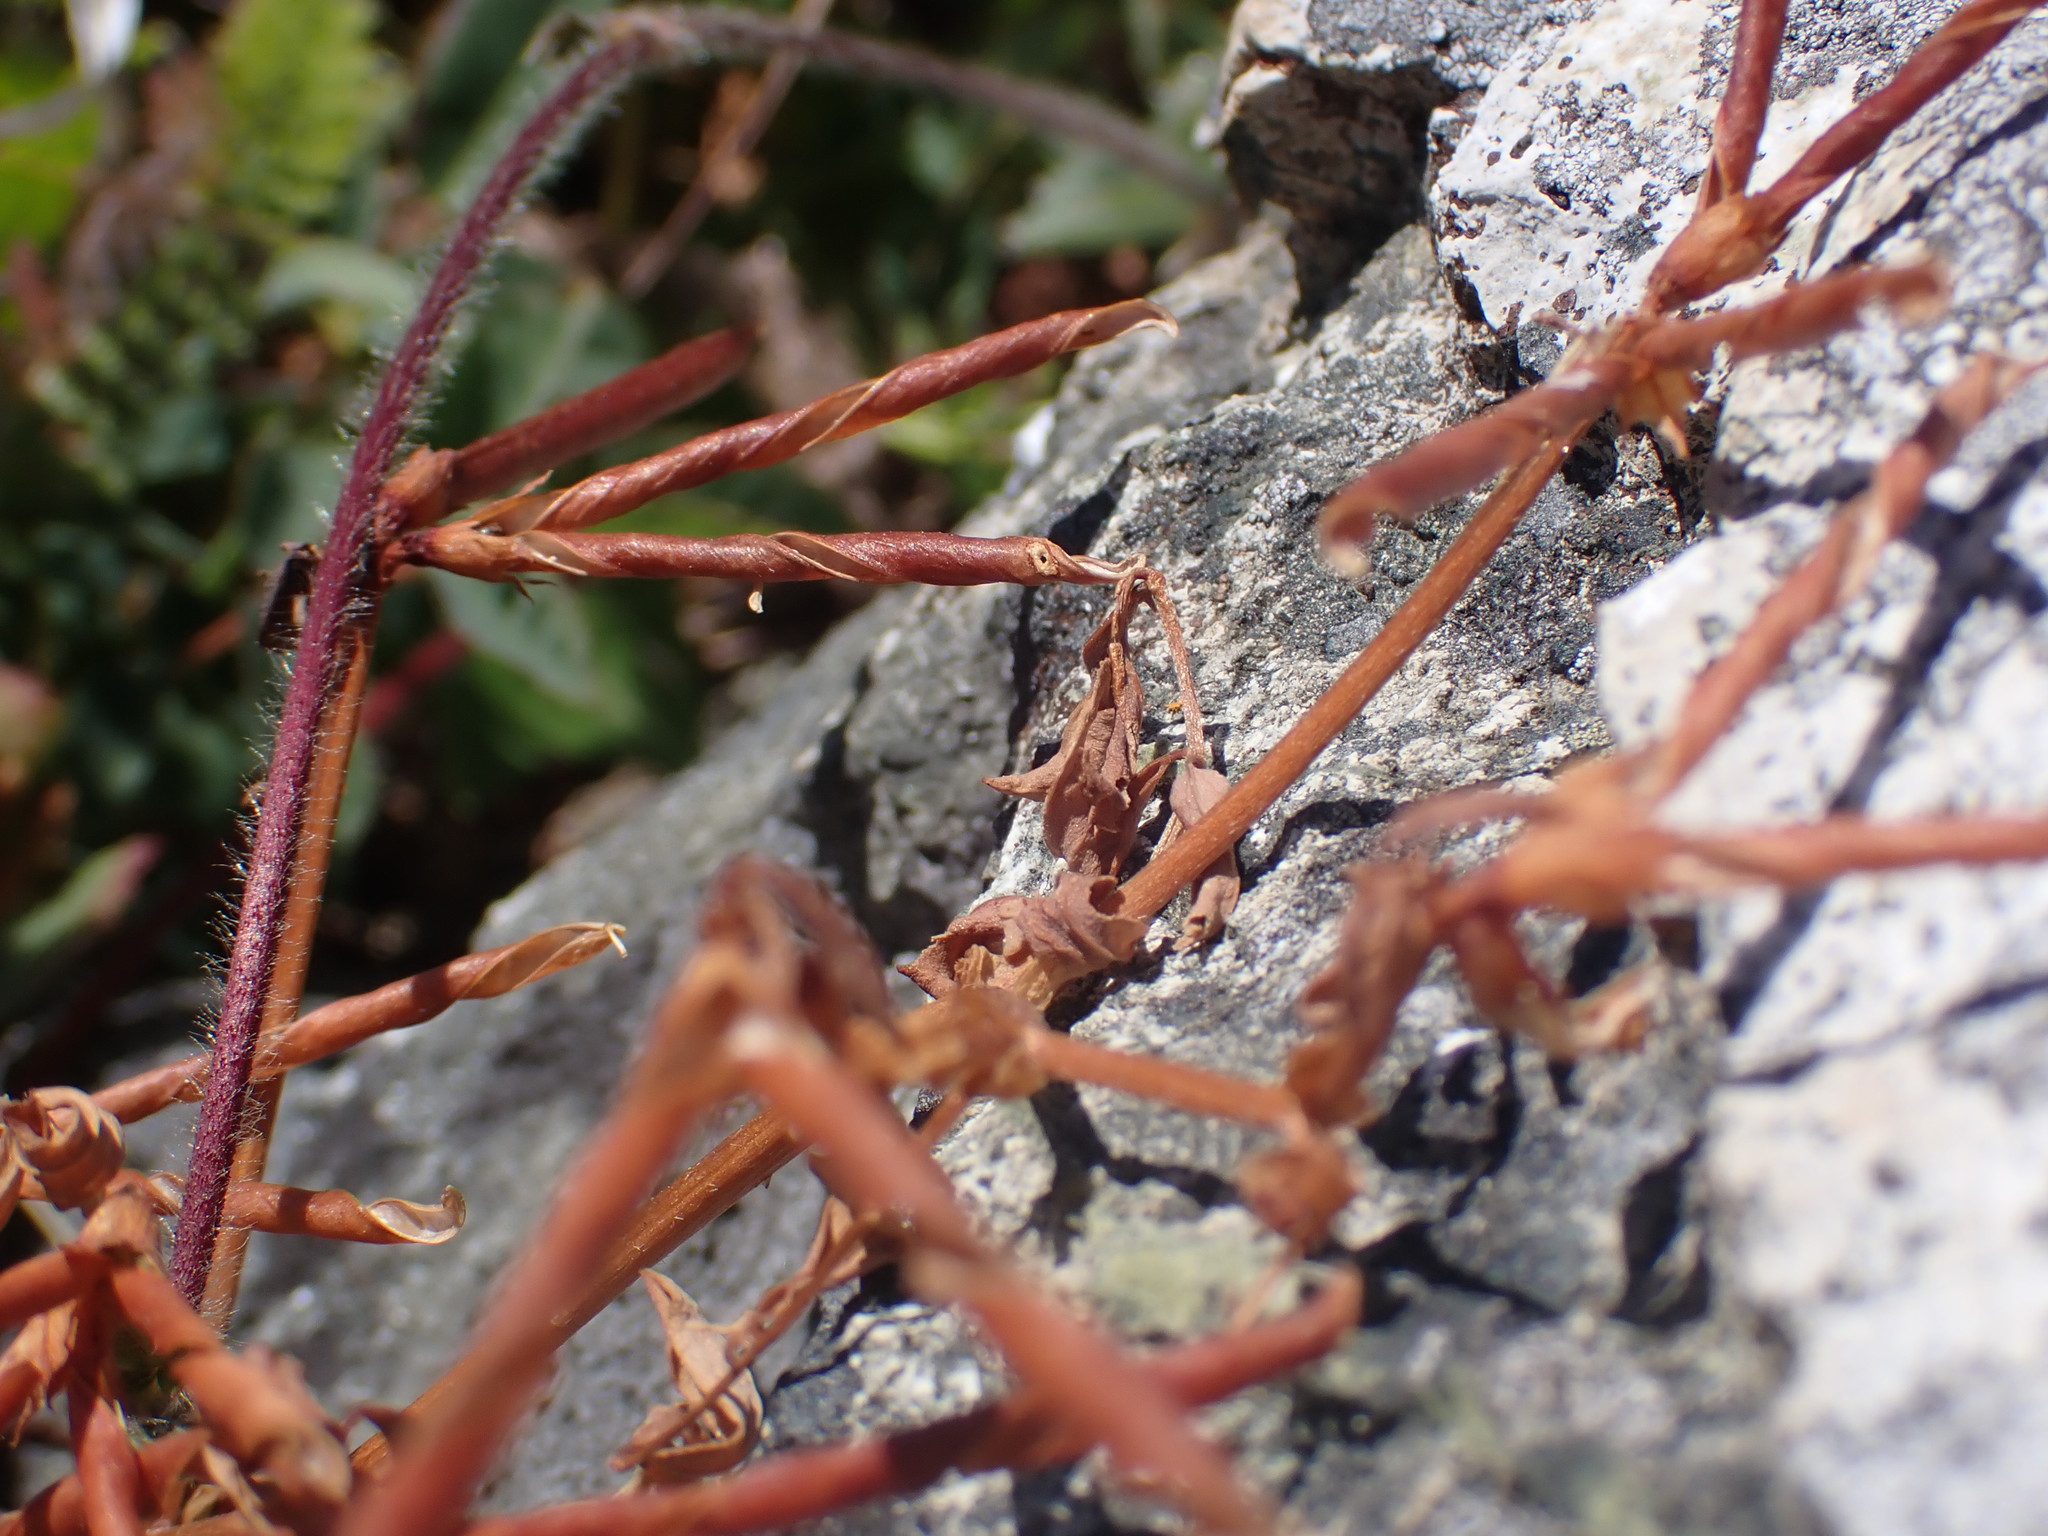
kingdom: Plantae
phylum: Tracheophyta
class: Magnoliopsida
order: Fabales
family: Fabaceae
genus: Hosackia
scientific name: Hosackia gracilis
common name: Seaside bird's-foot lotus
